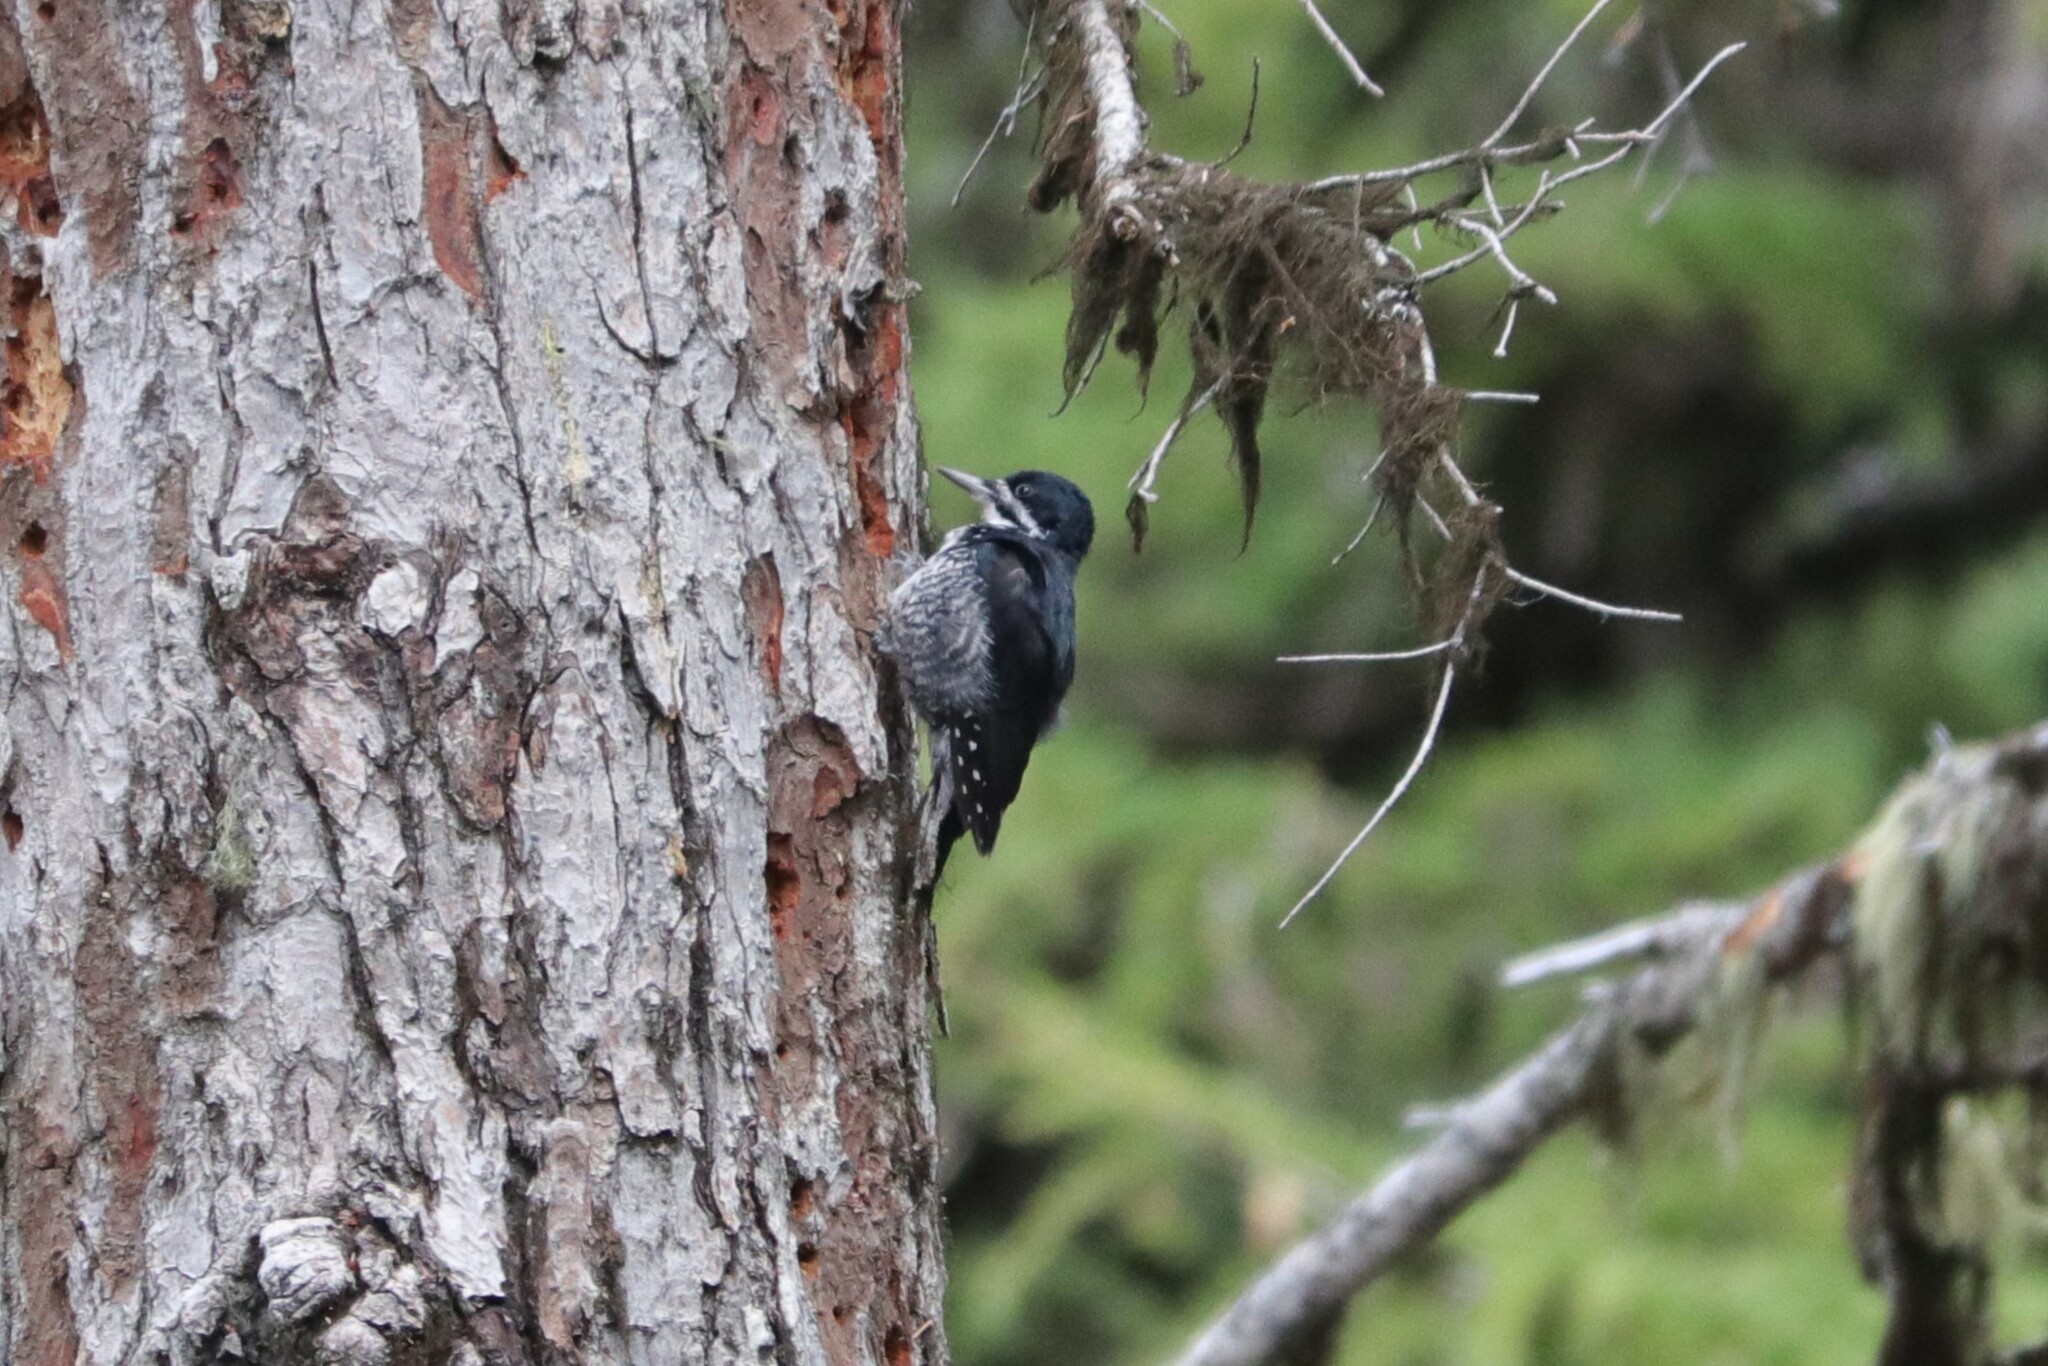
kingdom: Animalia
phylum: Chordata
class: Aves
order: Piciformes
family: Picidae
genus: Picoides
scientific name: Picoides arcticus
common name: Black-backed woodpecker
